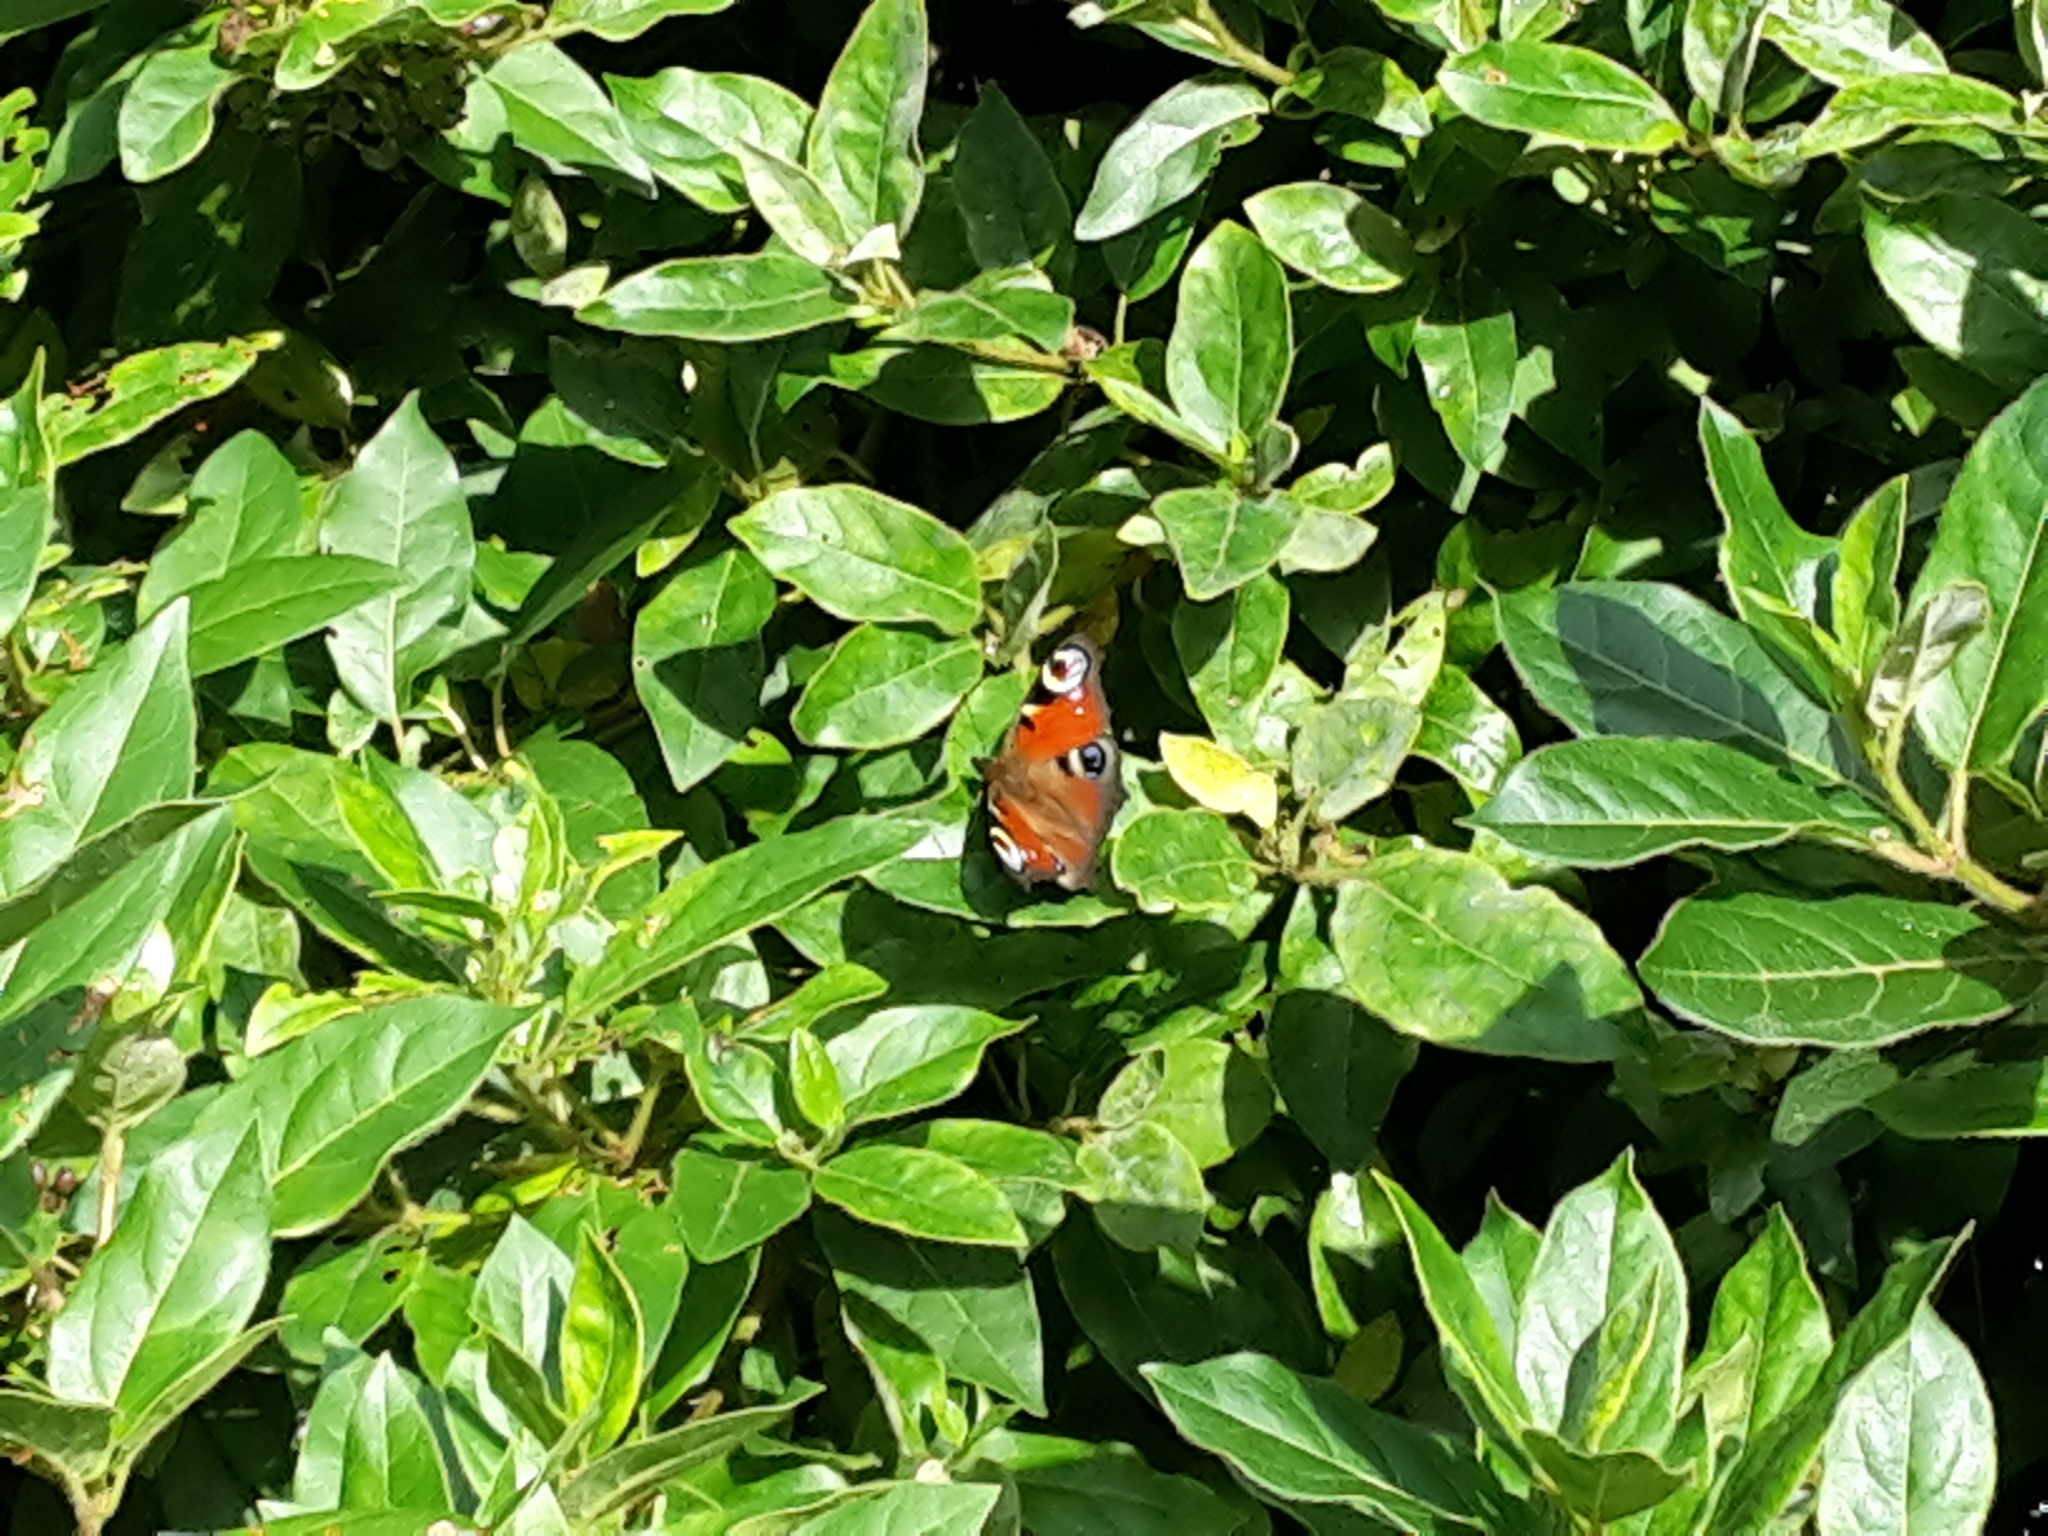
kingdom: Animalia
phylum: Arthropoda
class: Insecta
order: Lepidoptera
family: Nymphalidae
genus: Aglais
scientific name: Aglais io
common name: Peacock
